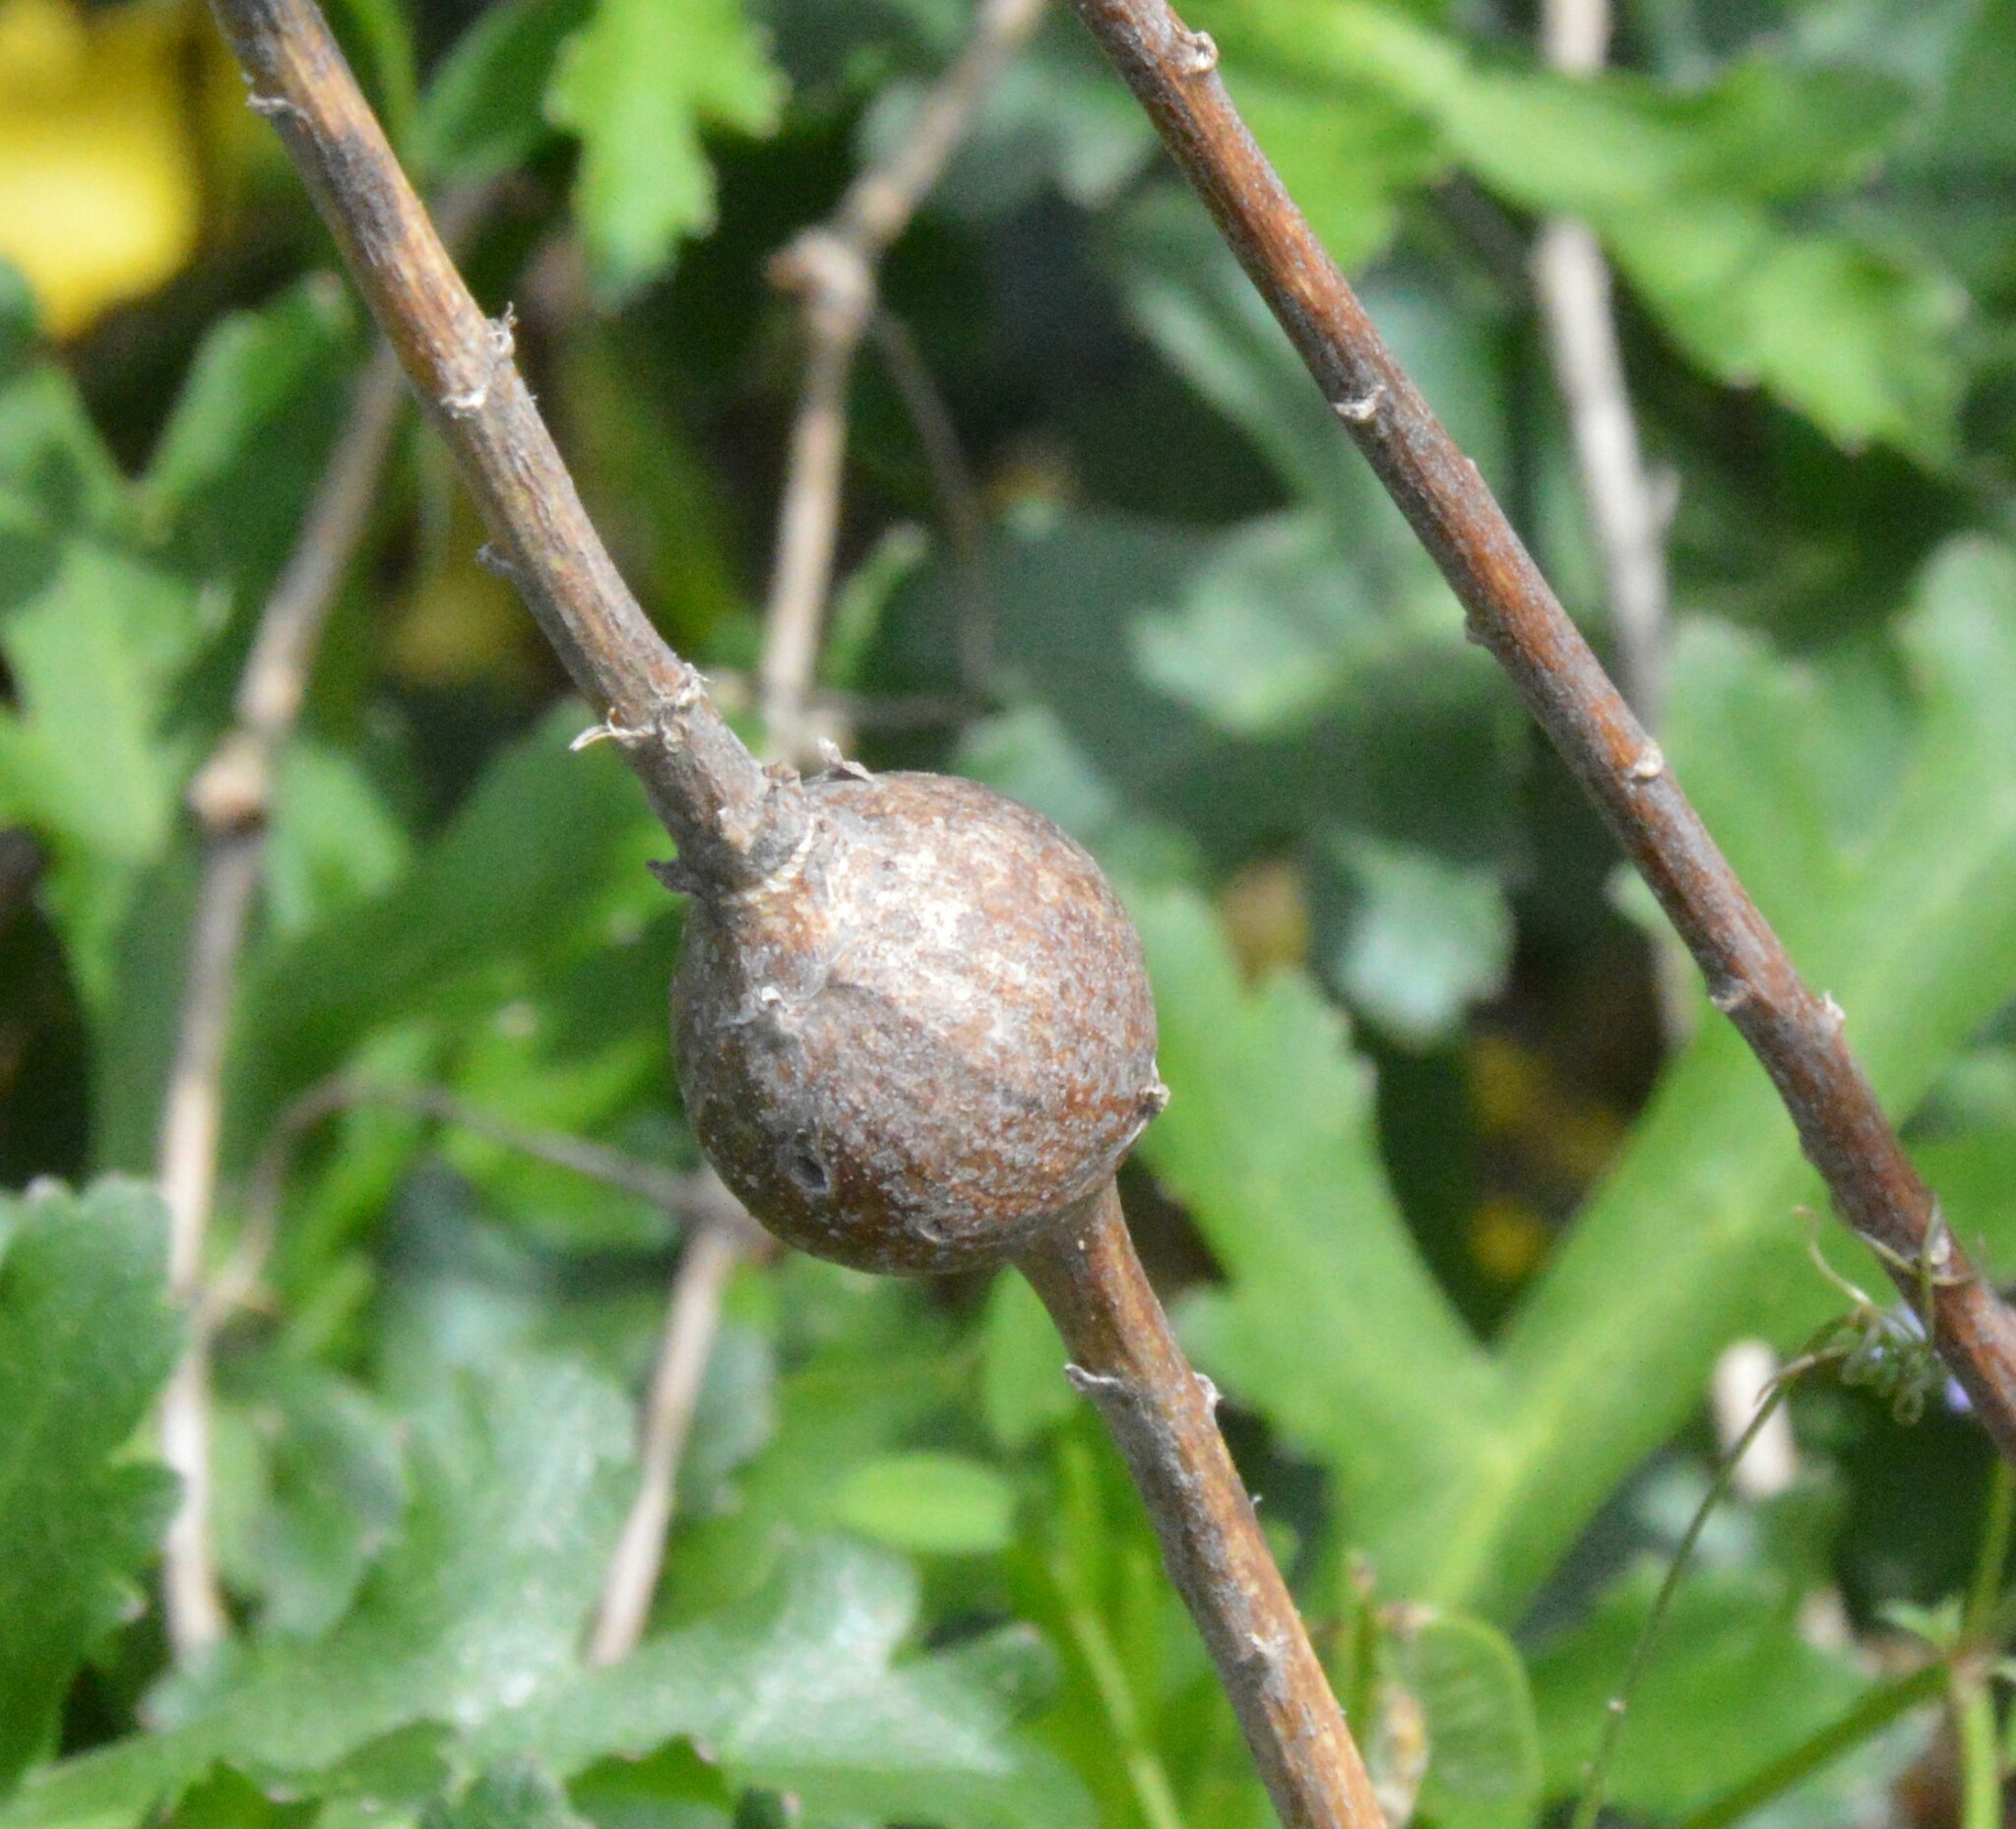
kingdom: Animalia
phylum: Arthropoda
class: Insecta
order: Diptera
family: Tephritidae
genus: Eurosta
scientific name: Eurosta solidaginis
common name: Goldenrod gall fly
